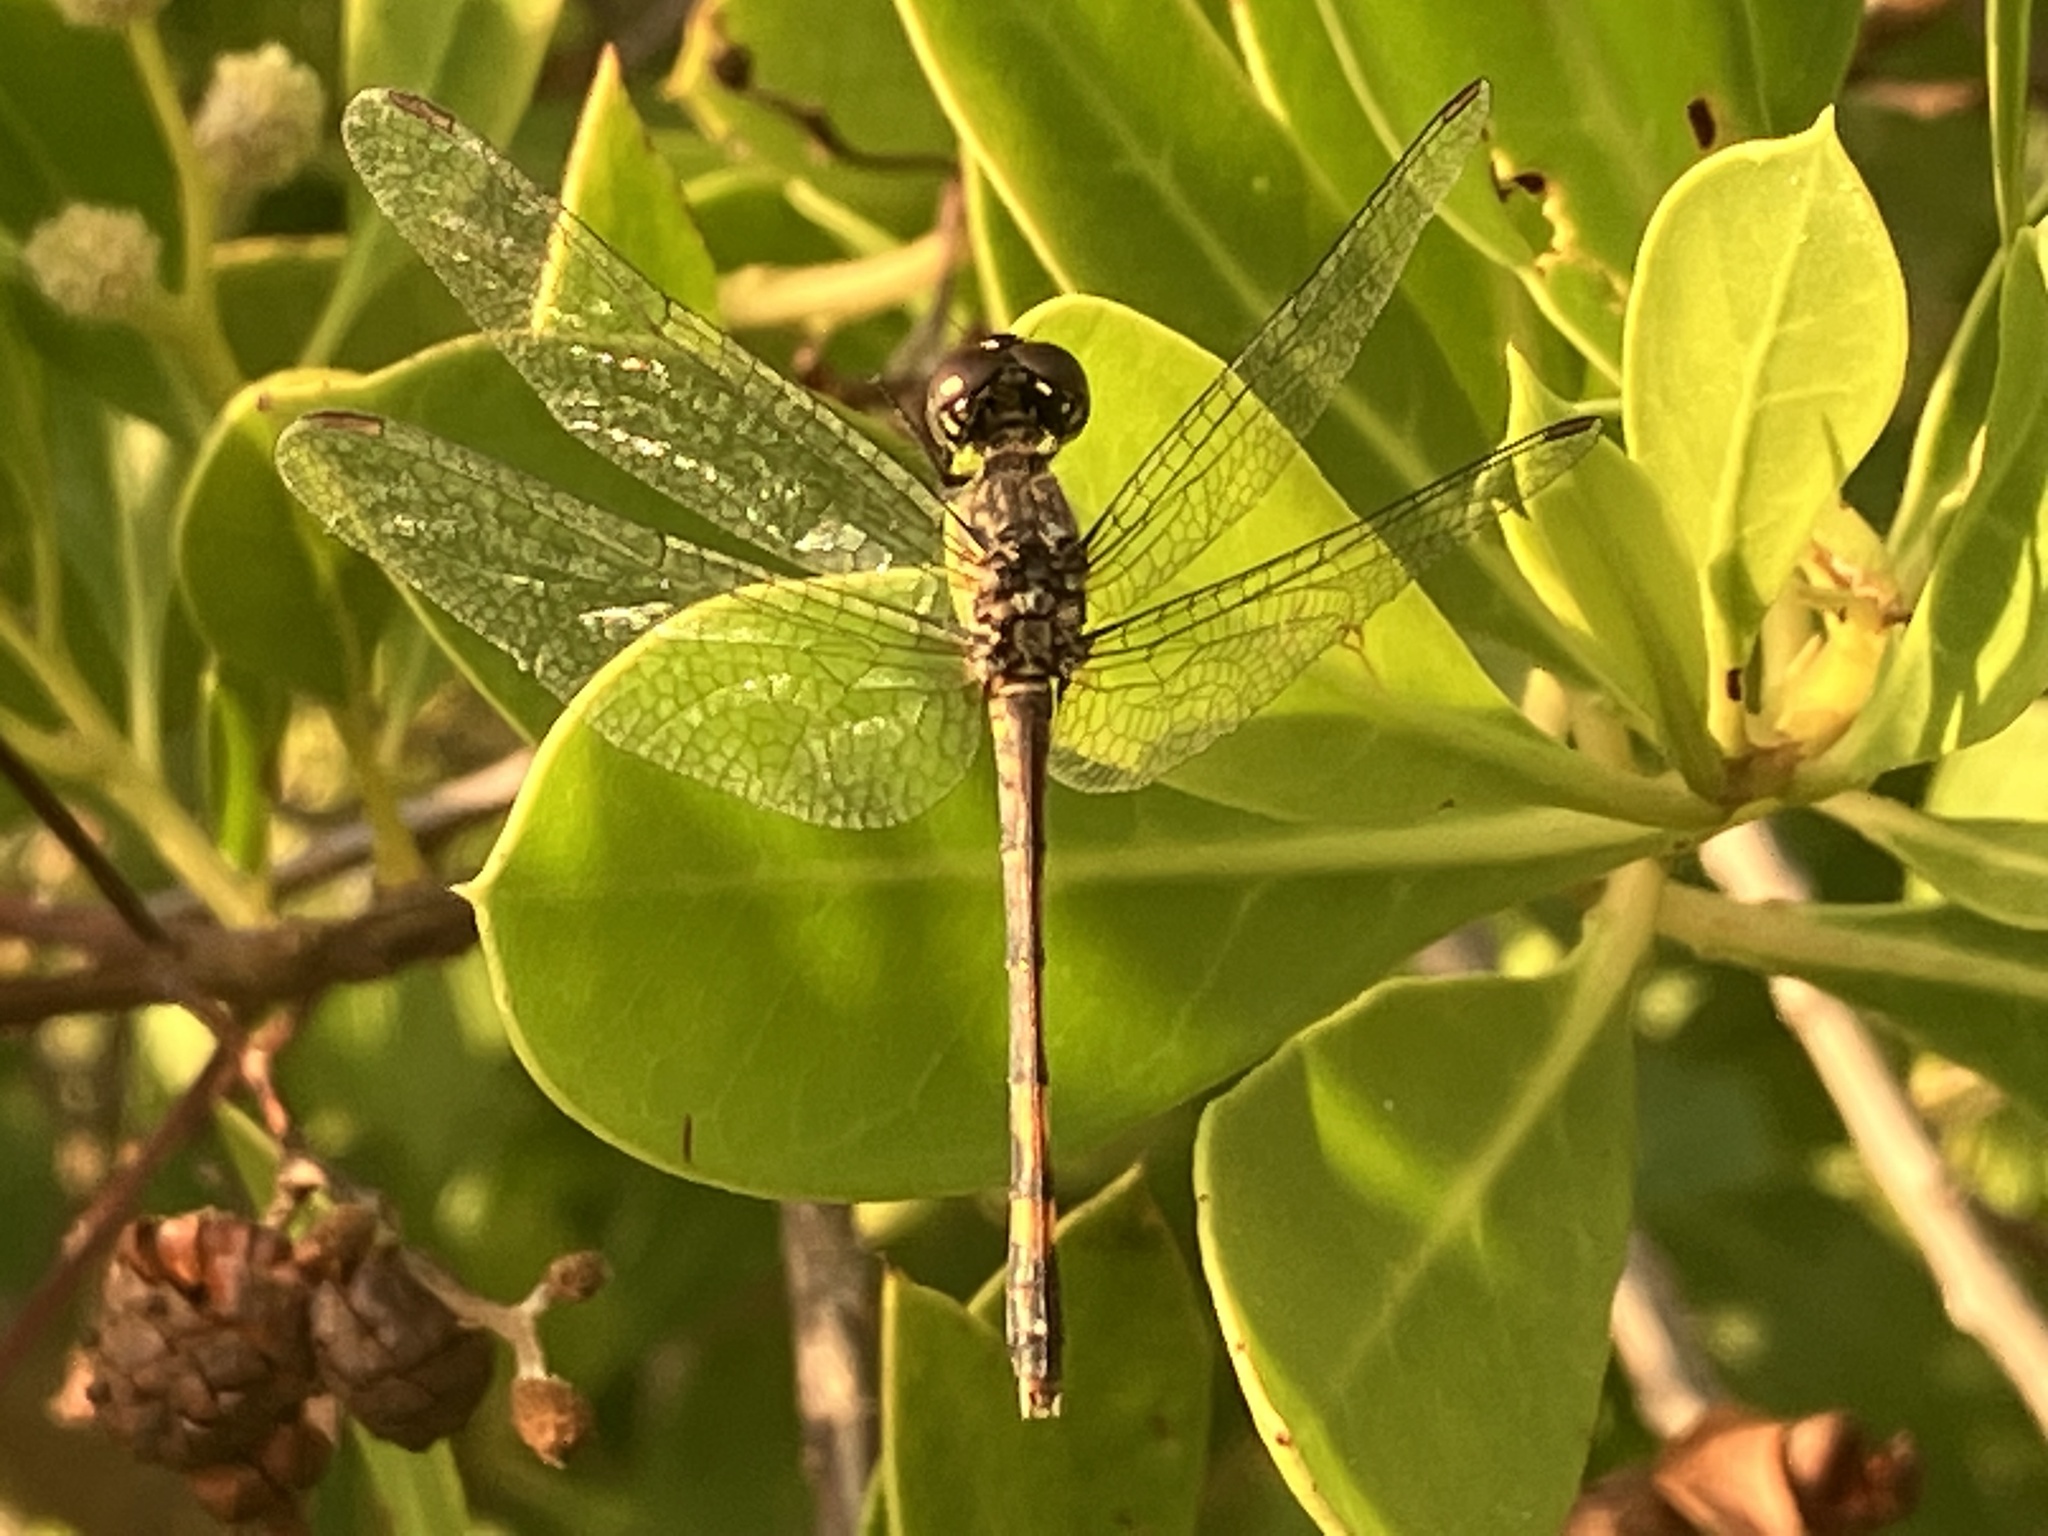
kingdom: Animalia
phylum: Arthropoda
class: Insecta
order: Odonata
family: Libellulidae
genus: Erythrodiplax
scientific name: Erythrodiplax berenice
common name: Seaside dragonlet
